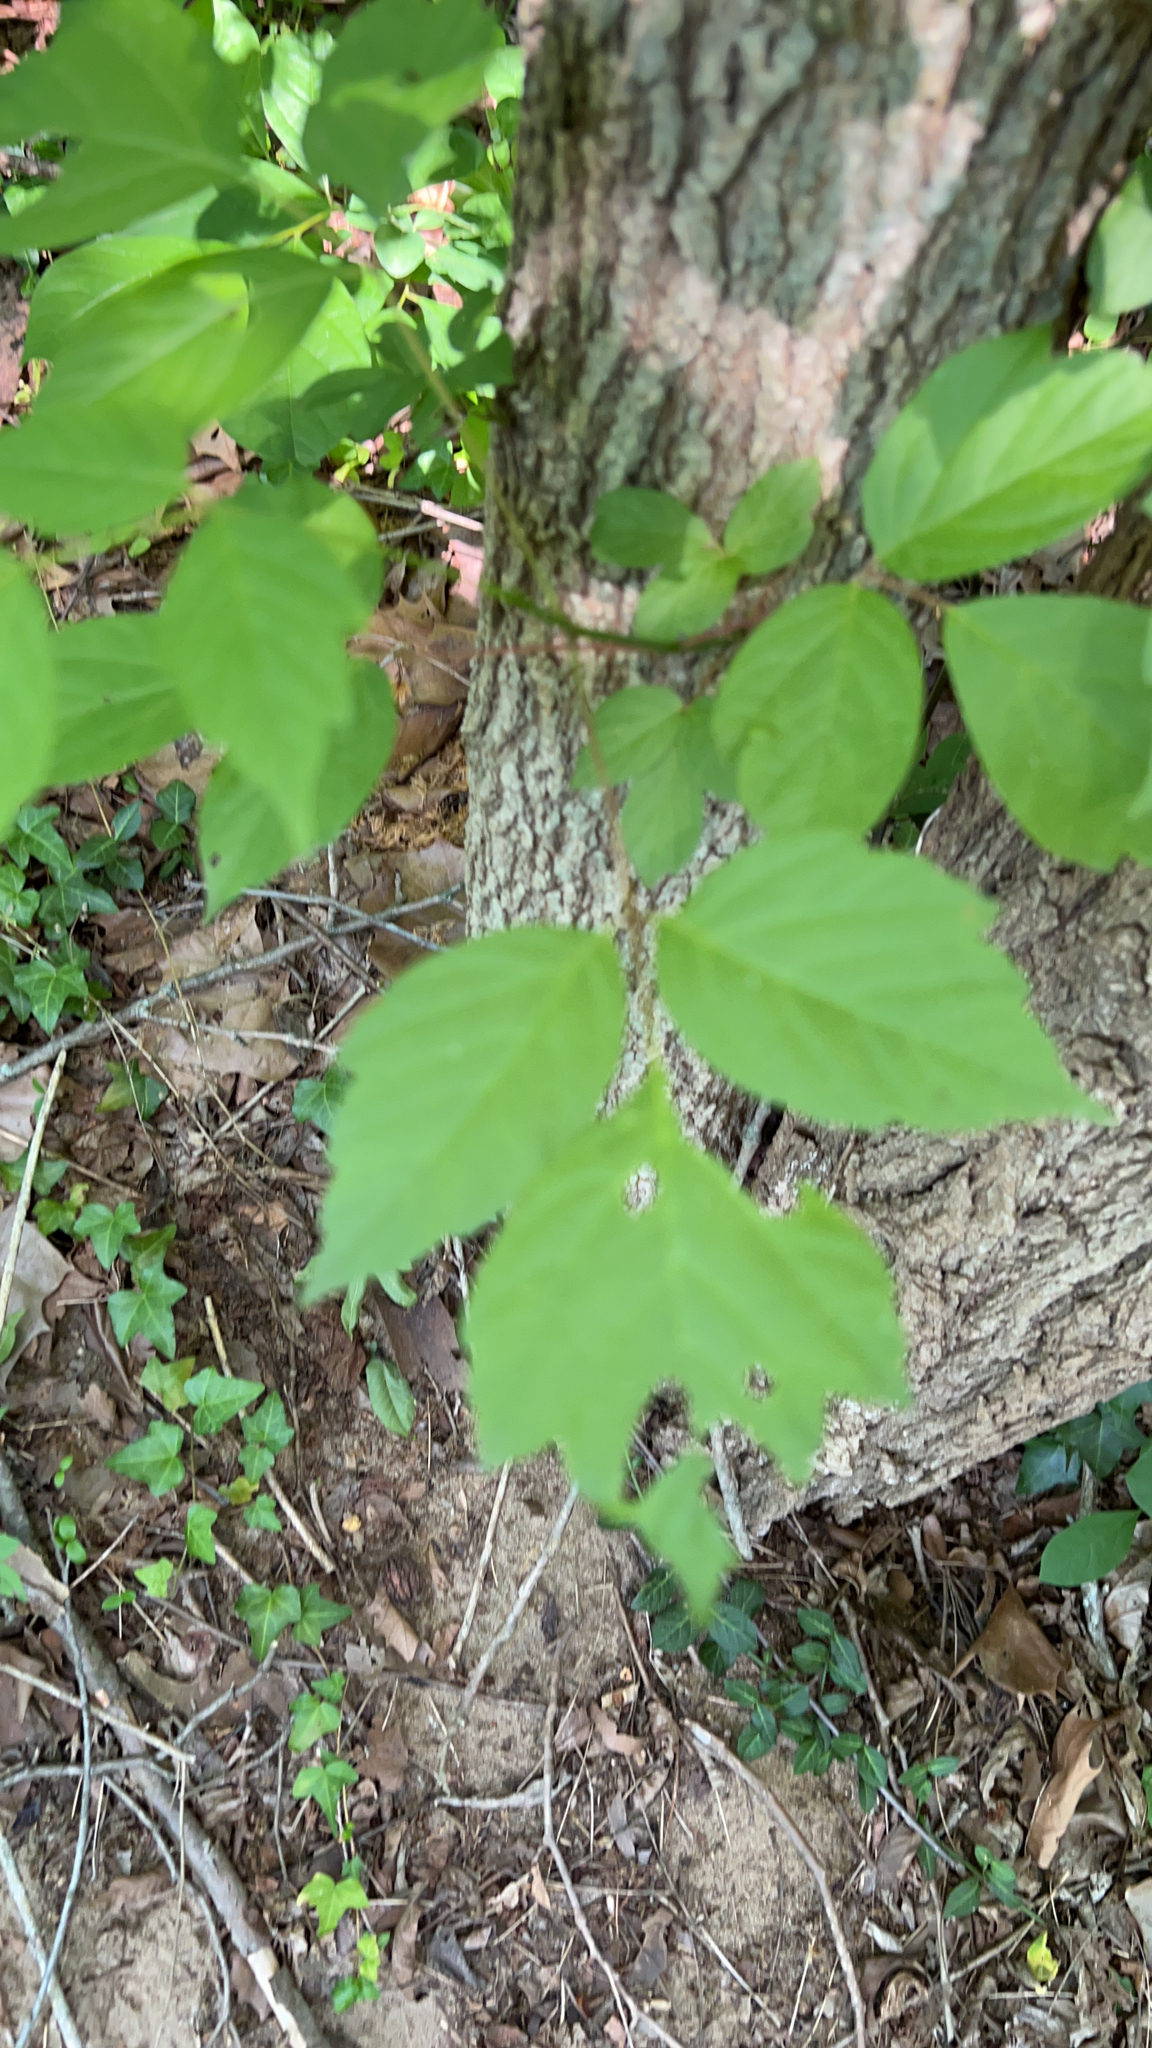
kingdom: Plantae
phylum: Tracheophyta
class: Magnoliopsida
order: Sapindales
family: Sapindaceae
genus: Acer
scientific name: Acer negundo
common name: Ashleaf maple
